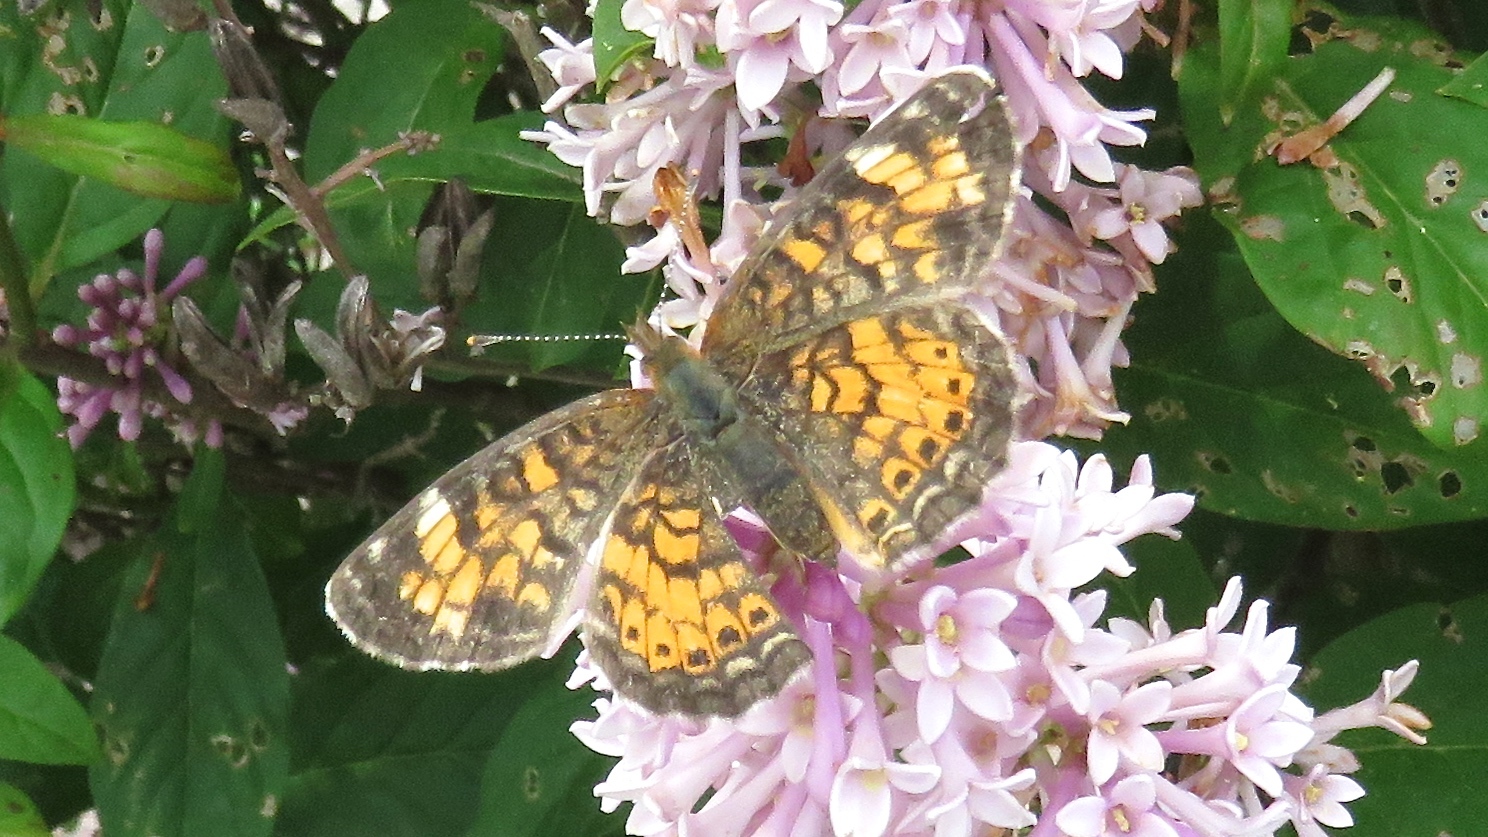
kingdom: Animalia
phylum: Arthropoda
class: Insecta
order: Lepidoptera
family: Nymphalidae
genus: Phyciodes
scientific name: Phyciodes tharos
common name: Pearl crescent
